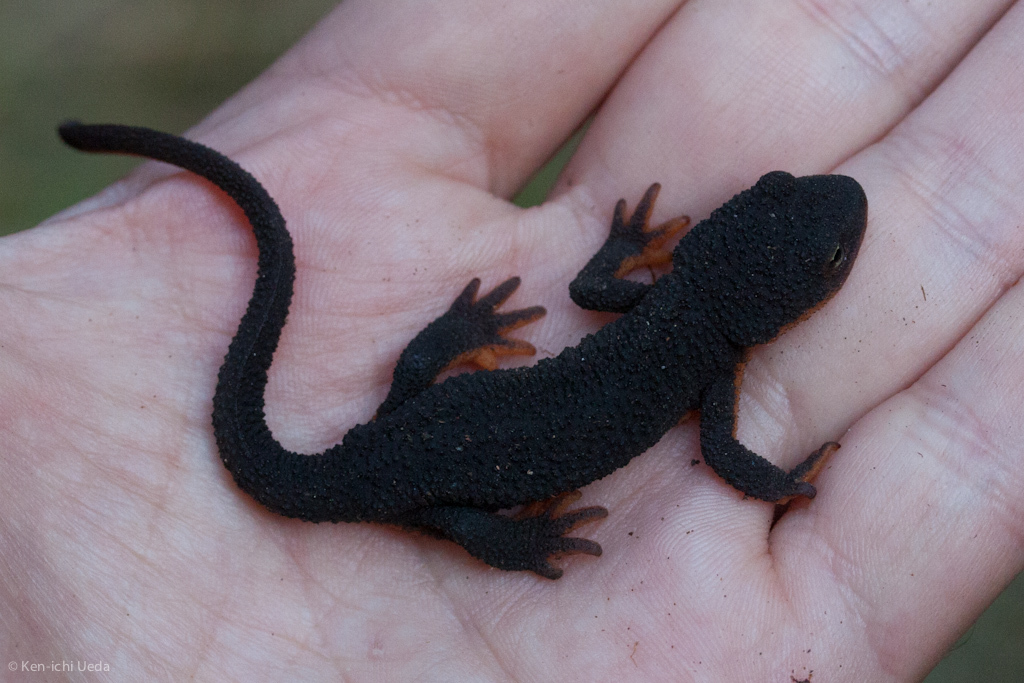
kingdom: Animalia
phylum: Chordata
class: Amphibia
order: Caudata
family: Salamandridae
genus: Taricha
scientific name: Taricha granulosa
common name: Roughskin newt
